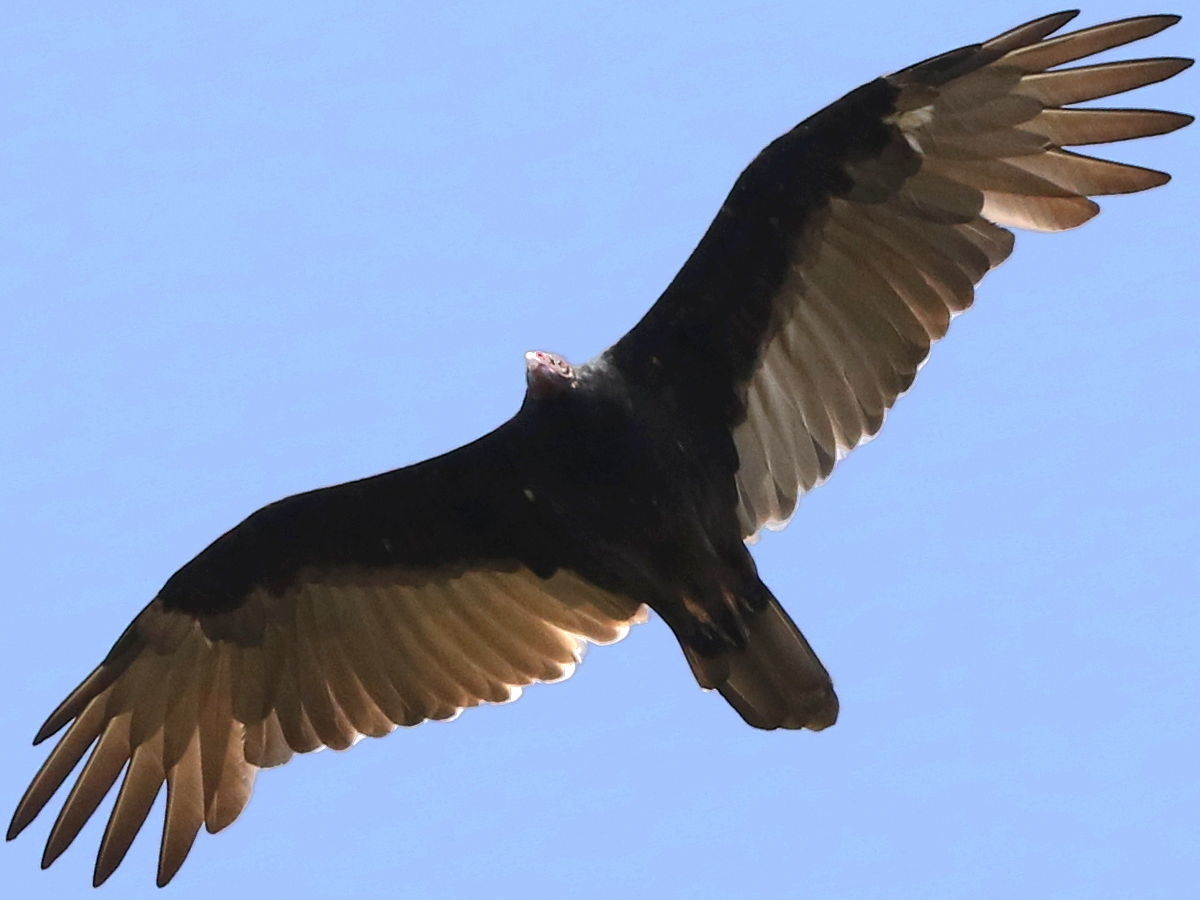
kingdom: Animalia
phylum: Chordata
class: Aves
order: Accipitriformes
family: Cathartidae
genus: Cathartes
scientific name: Cathartes aura
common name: Turkey vulture
